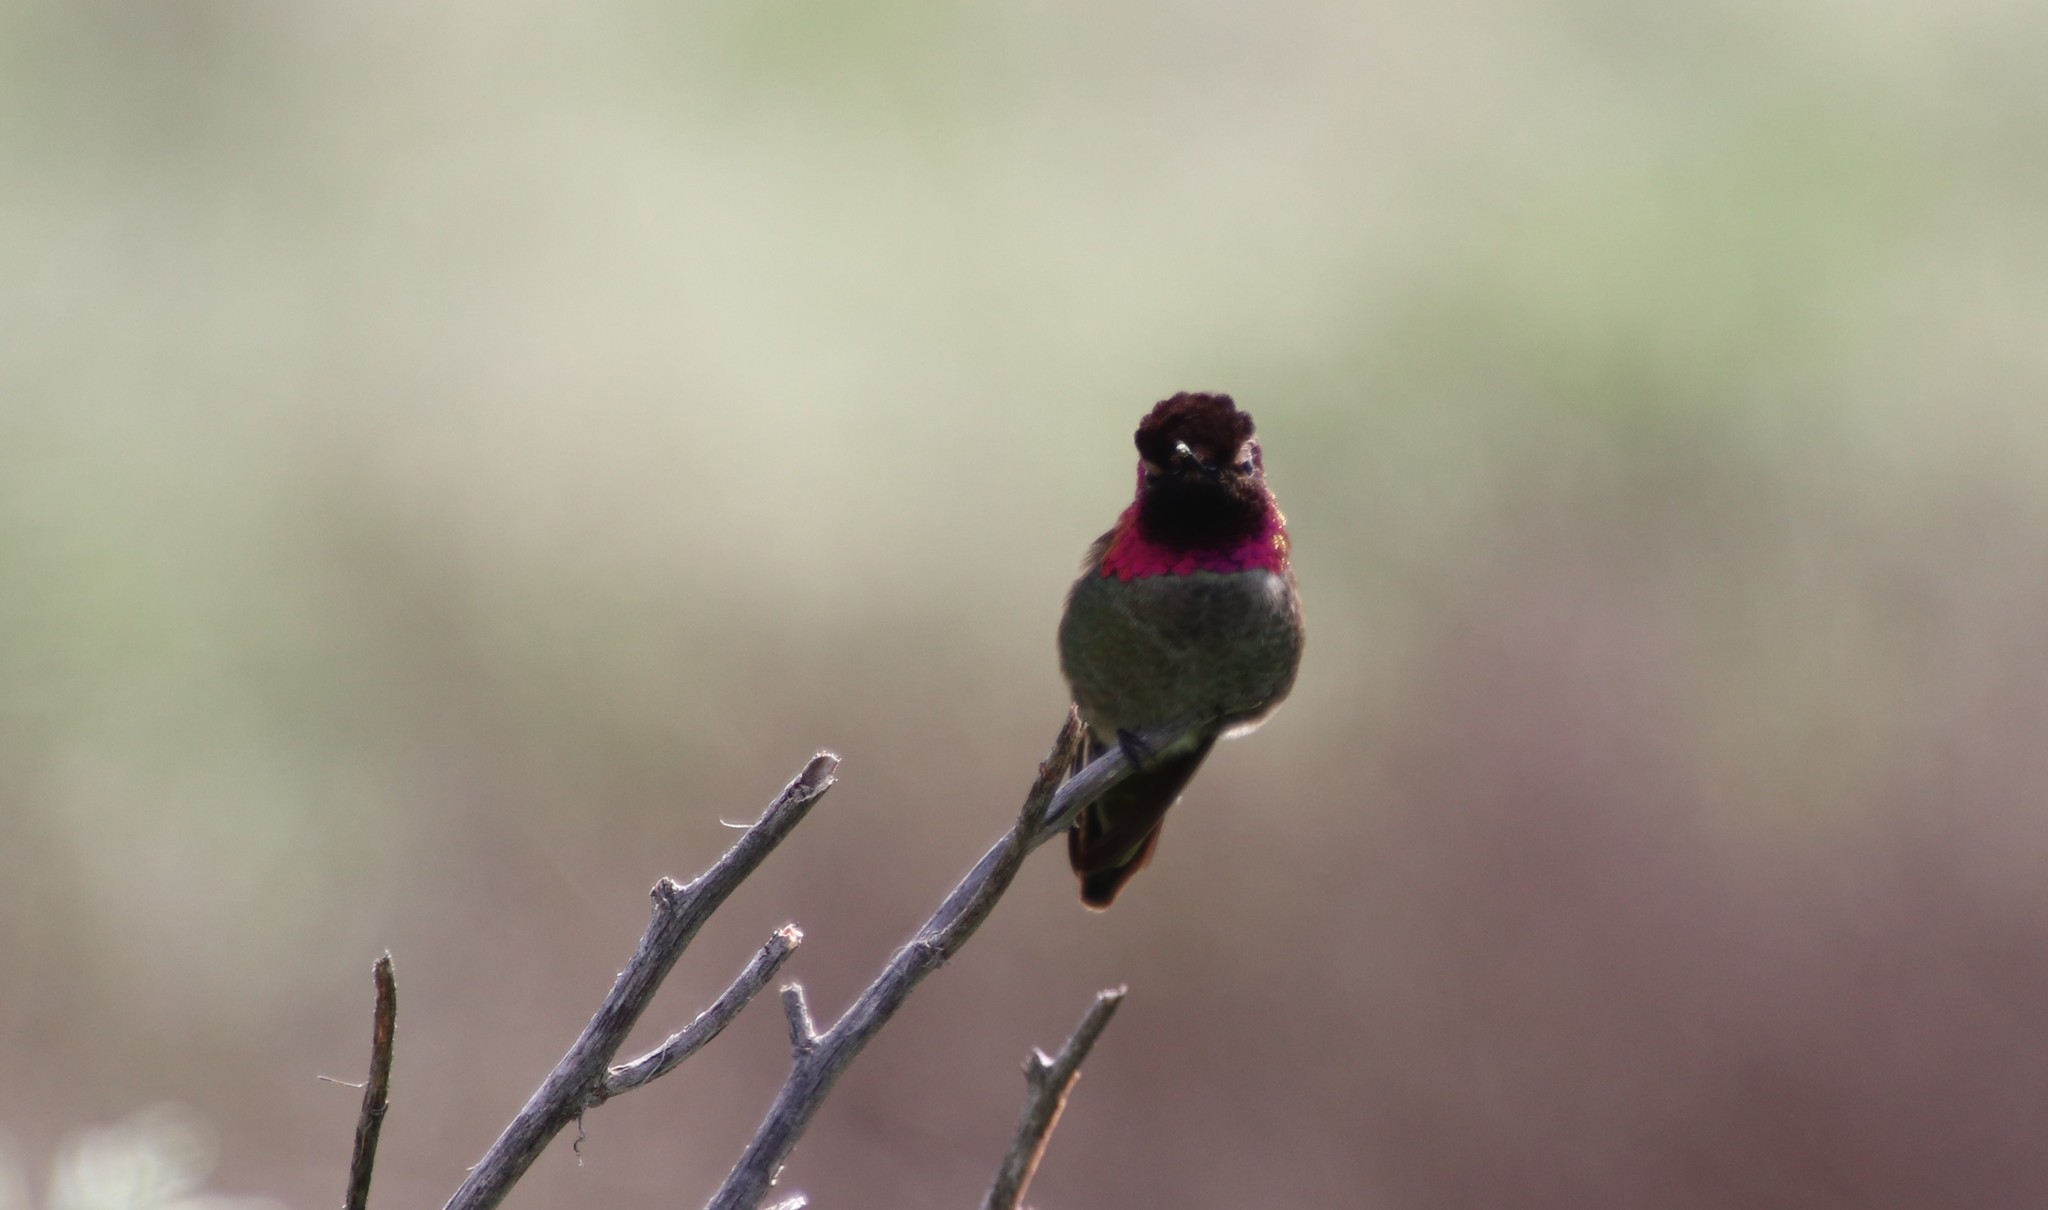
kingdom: Animalia
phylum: Chordata
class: Aves
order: Apodiformes
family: Trochilidae
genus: Calypte
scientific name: Calypte anna
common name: Anna's hummingbird
